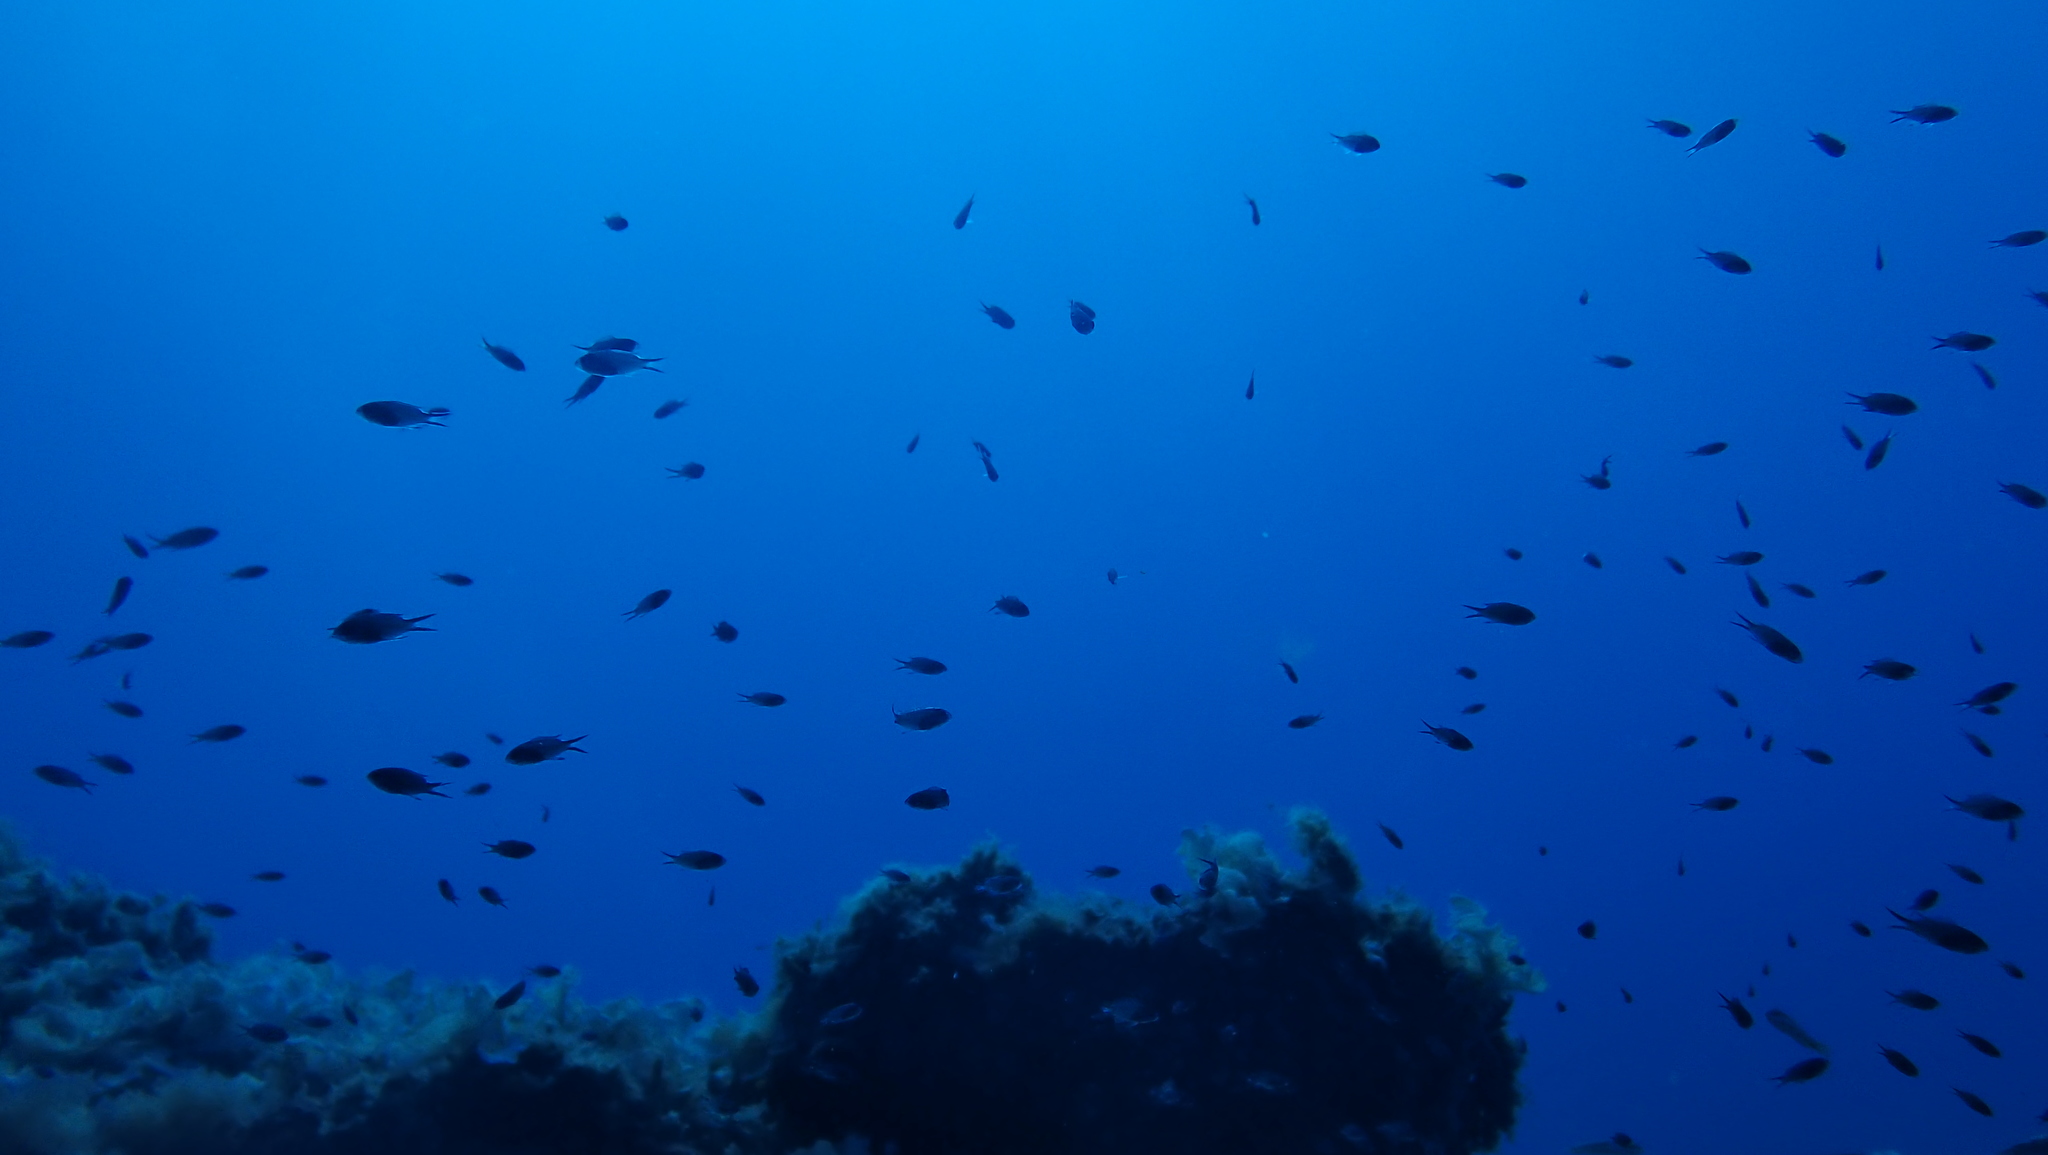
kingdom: Animalia
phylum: Chordata
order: Perciformes
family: Pomacentridae
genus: Chromis
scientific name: Chromis chromis
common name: Damselfish
